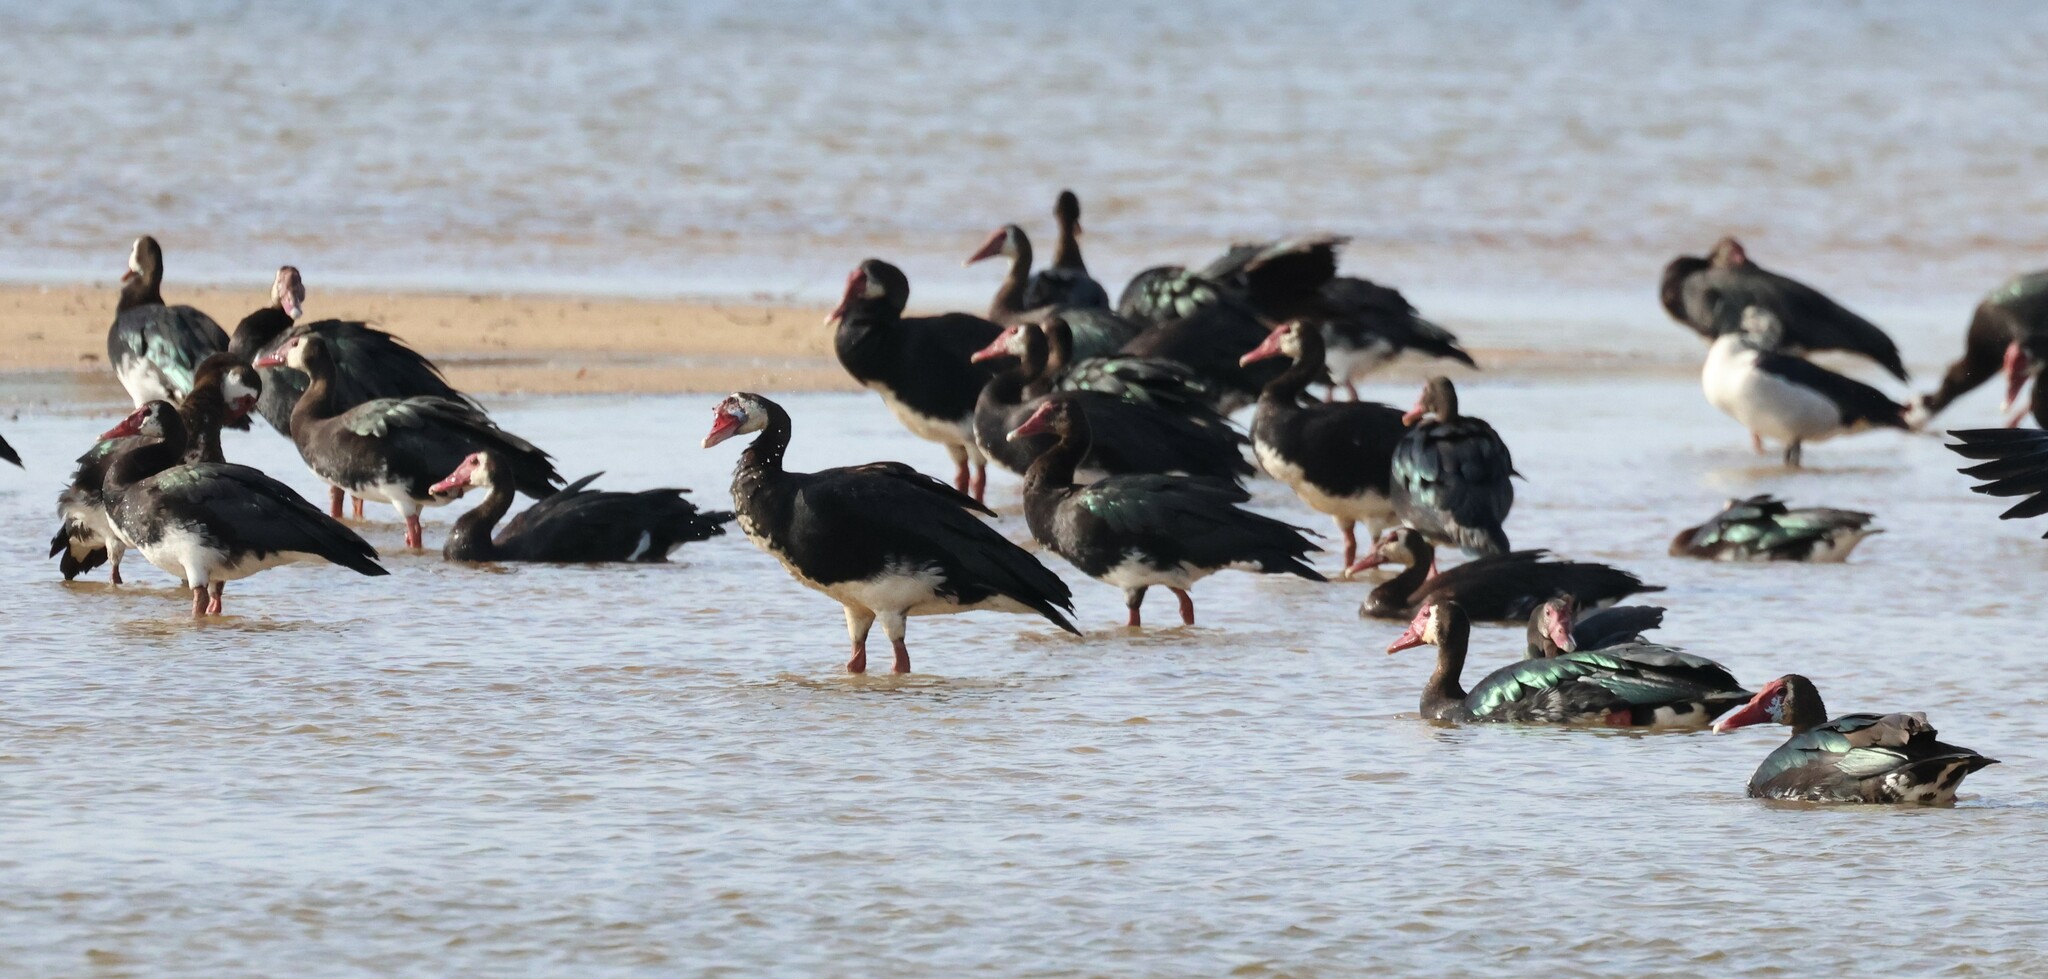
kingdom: Animalia
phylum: Chordata
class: Aves
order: Anseriformes
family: Anatidae
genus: Plectropterus
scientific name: Plectropterus gambensis
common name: Spur-winged goose
